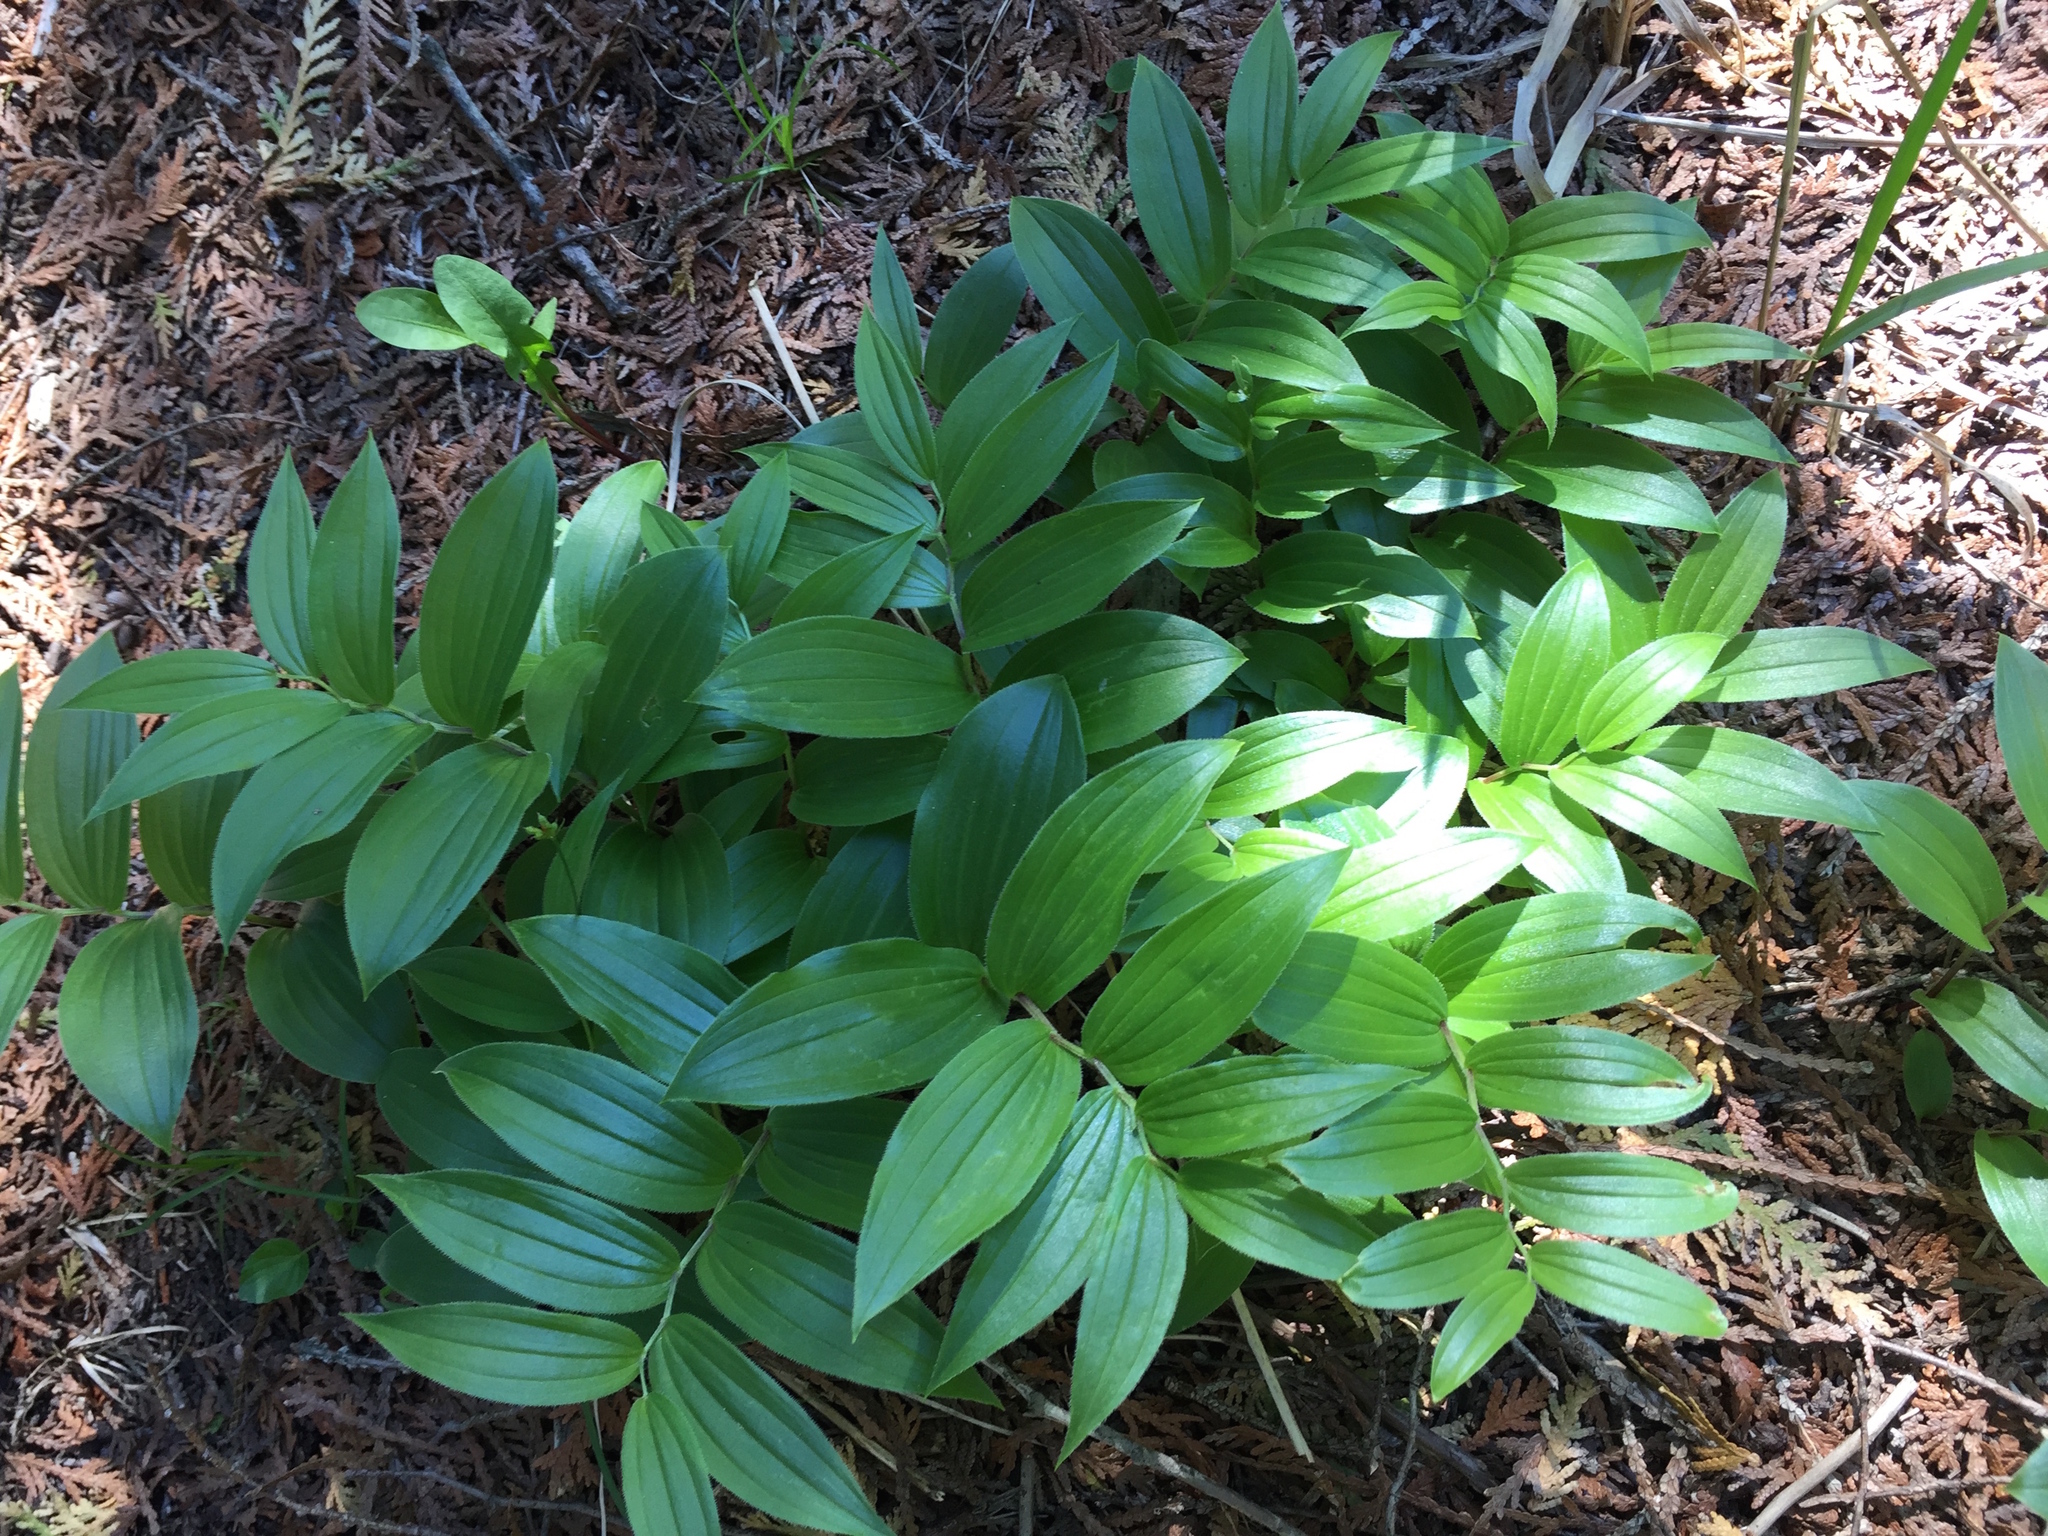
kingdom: Plantae
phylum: Tracheophyta
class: Liliopsida
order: Liliales
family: Liliaceae
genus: Streptopus
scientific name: Streptopus lanceolatus
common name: Rose mandarin
